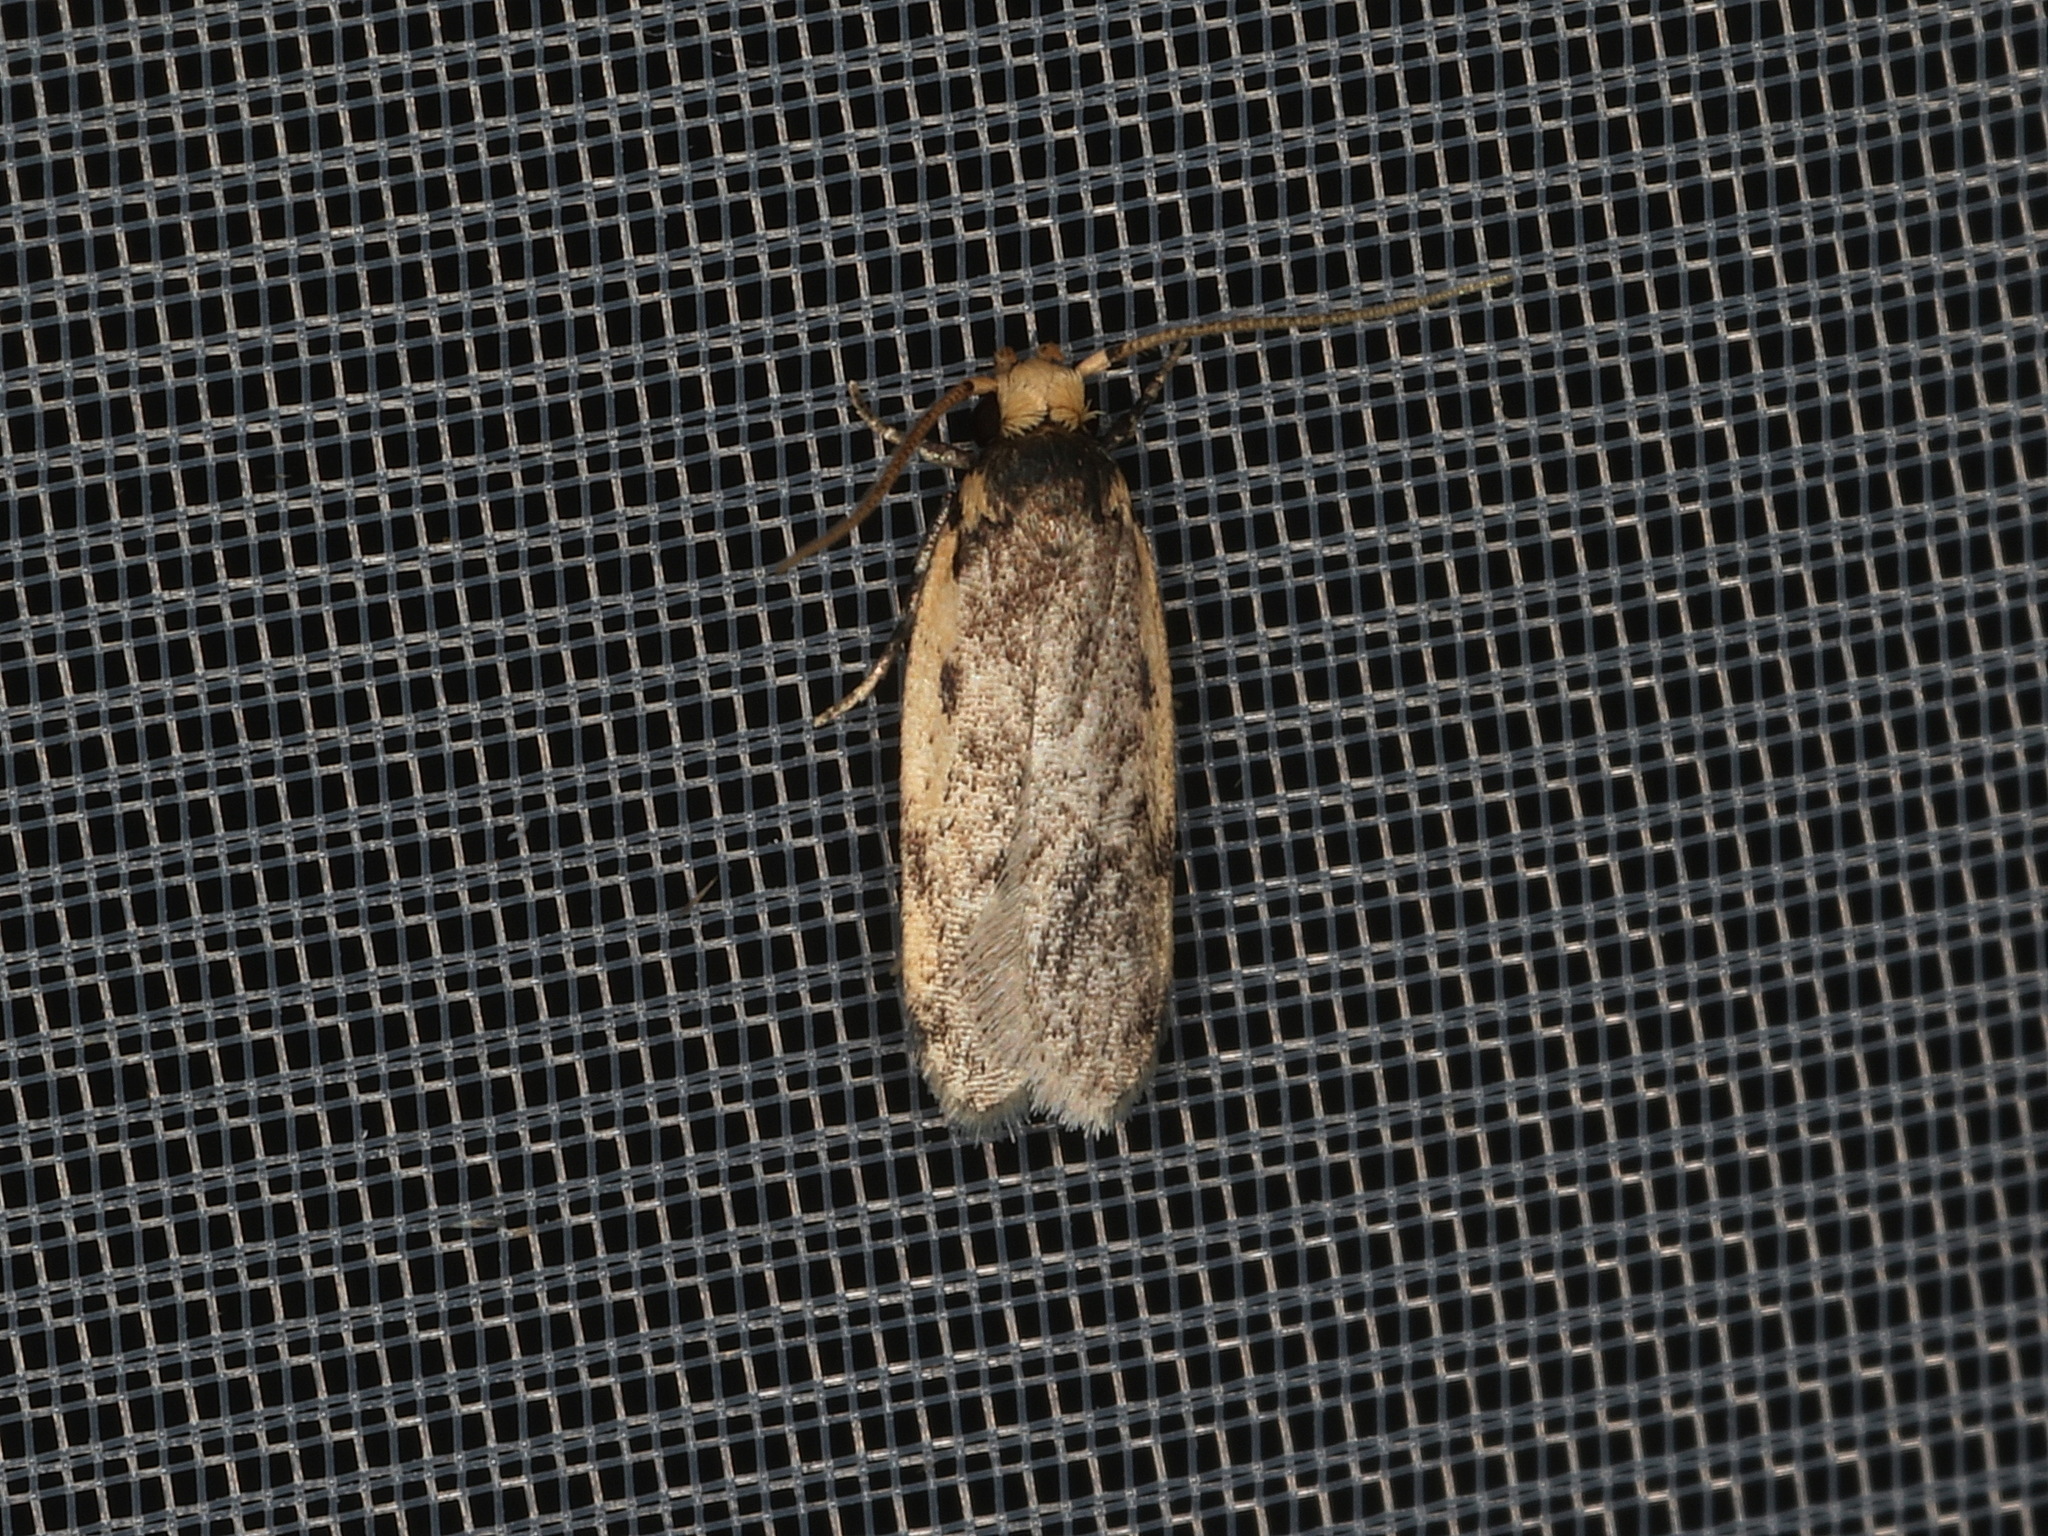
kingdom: Animalia
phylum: Arthropoda
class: Insecta
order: Lepidoptera
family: Oecophoridae
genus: Hoplostega
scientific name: Hoplostega ochroma
